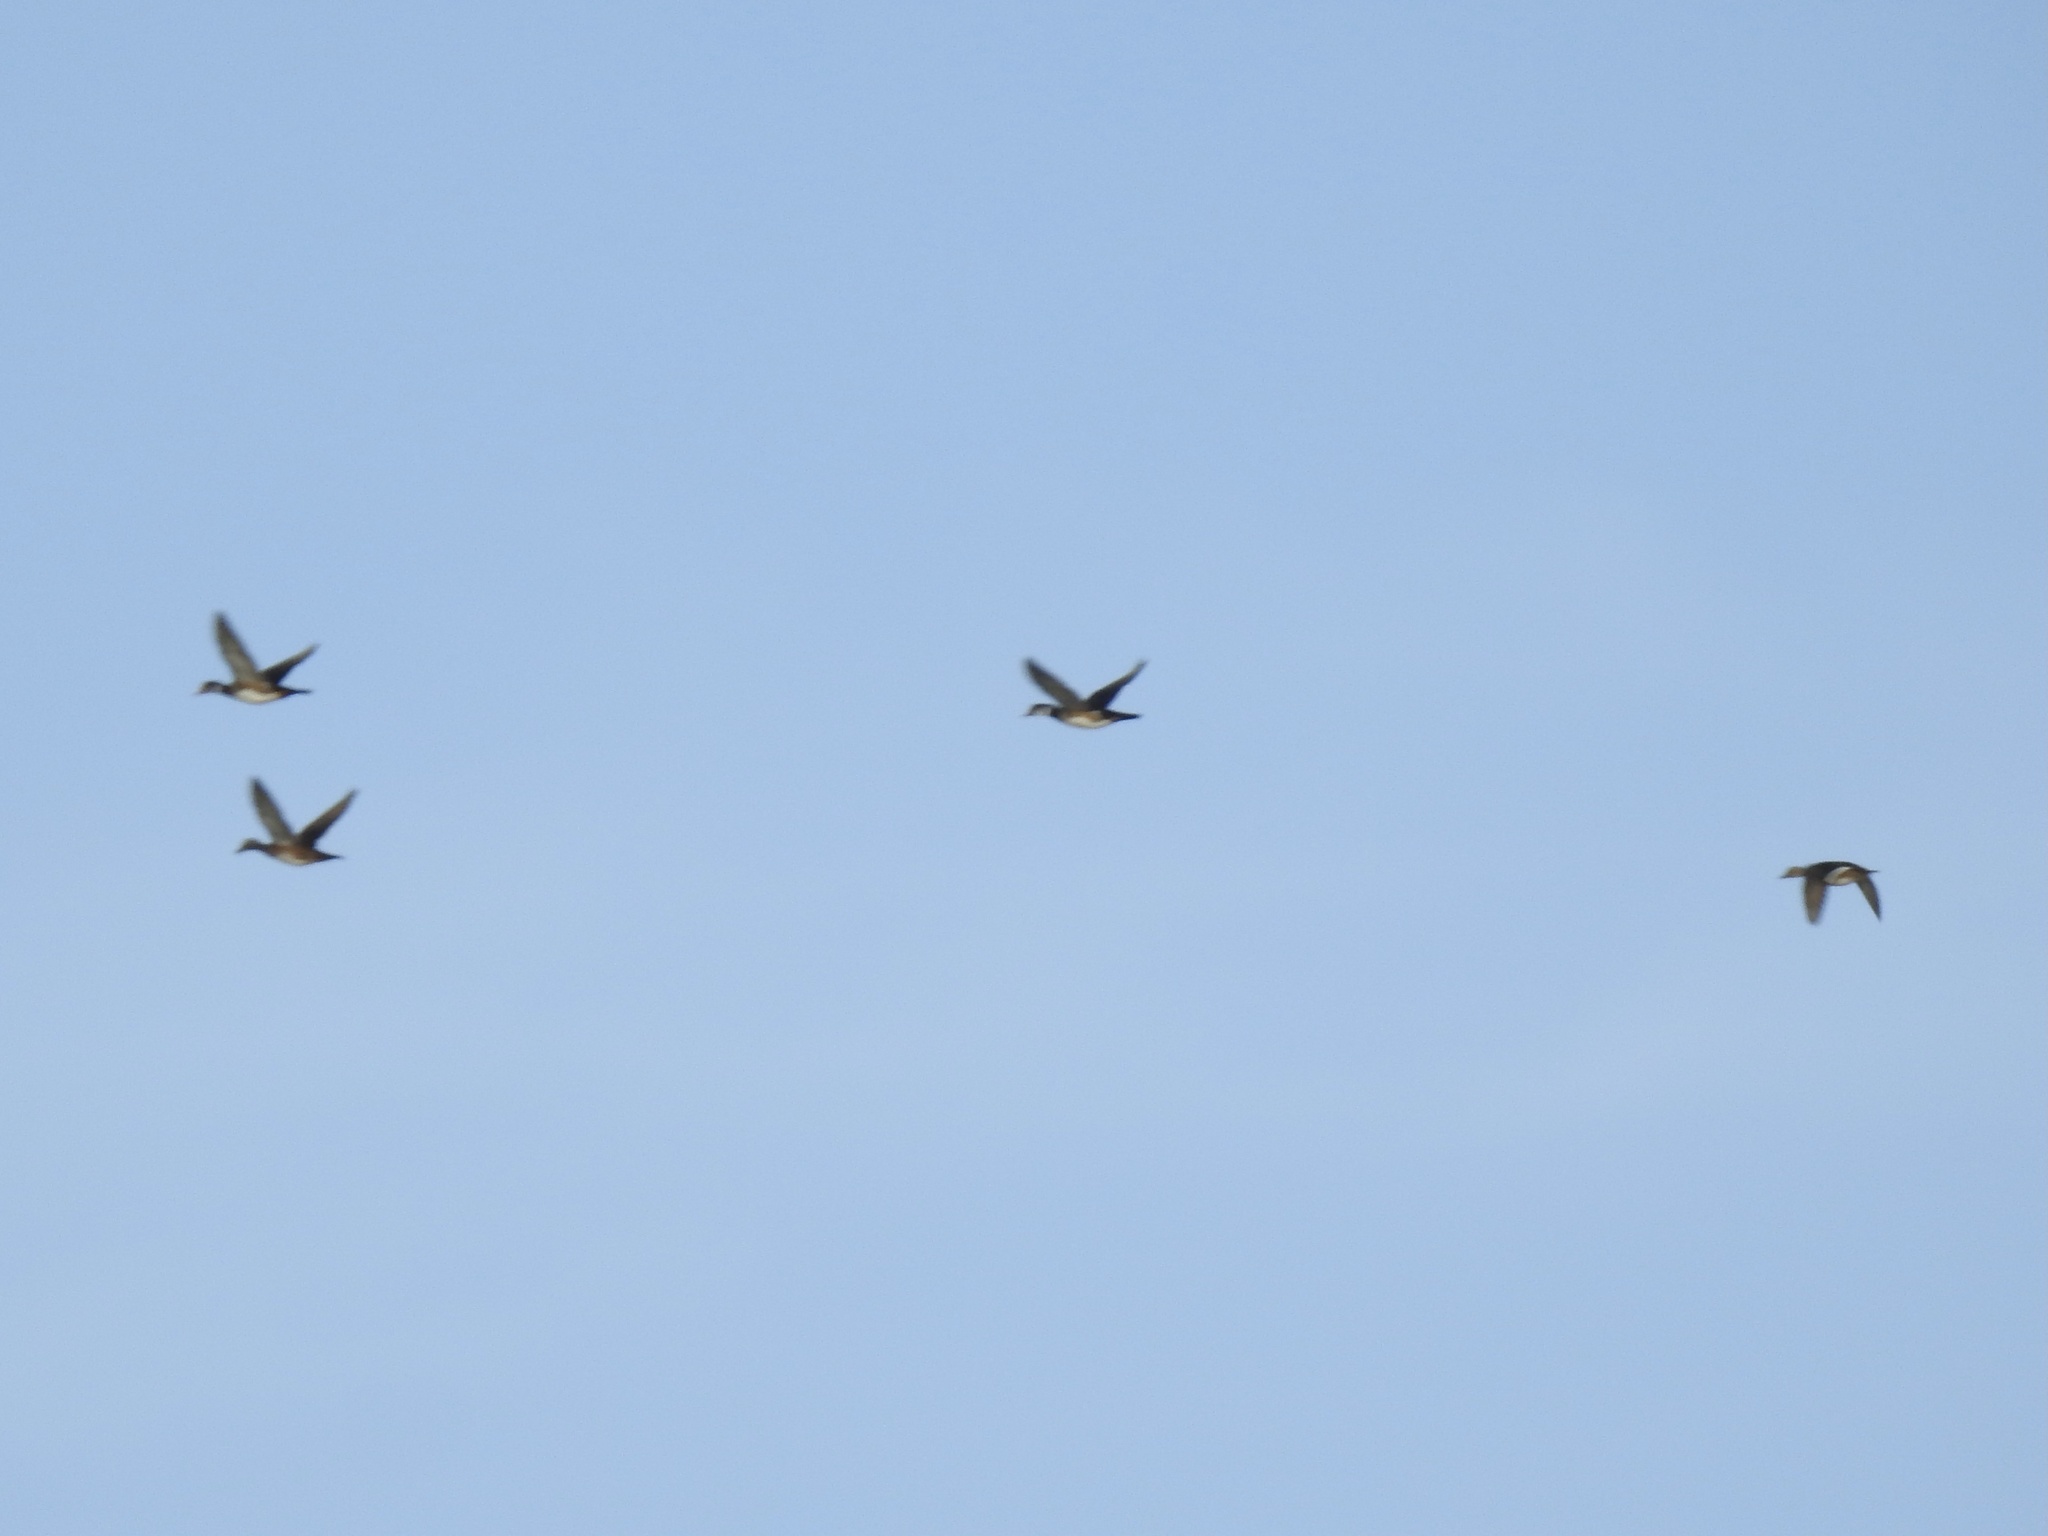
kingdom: Animalia
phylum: Chordata
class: Aves
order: Anseriformes
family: Anatidae
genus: Aix
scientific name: Aix sponsa
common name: Wood duck
